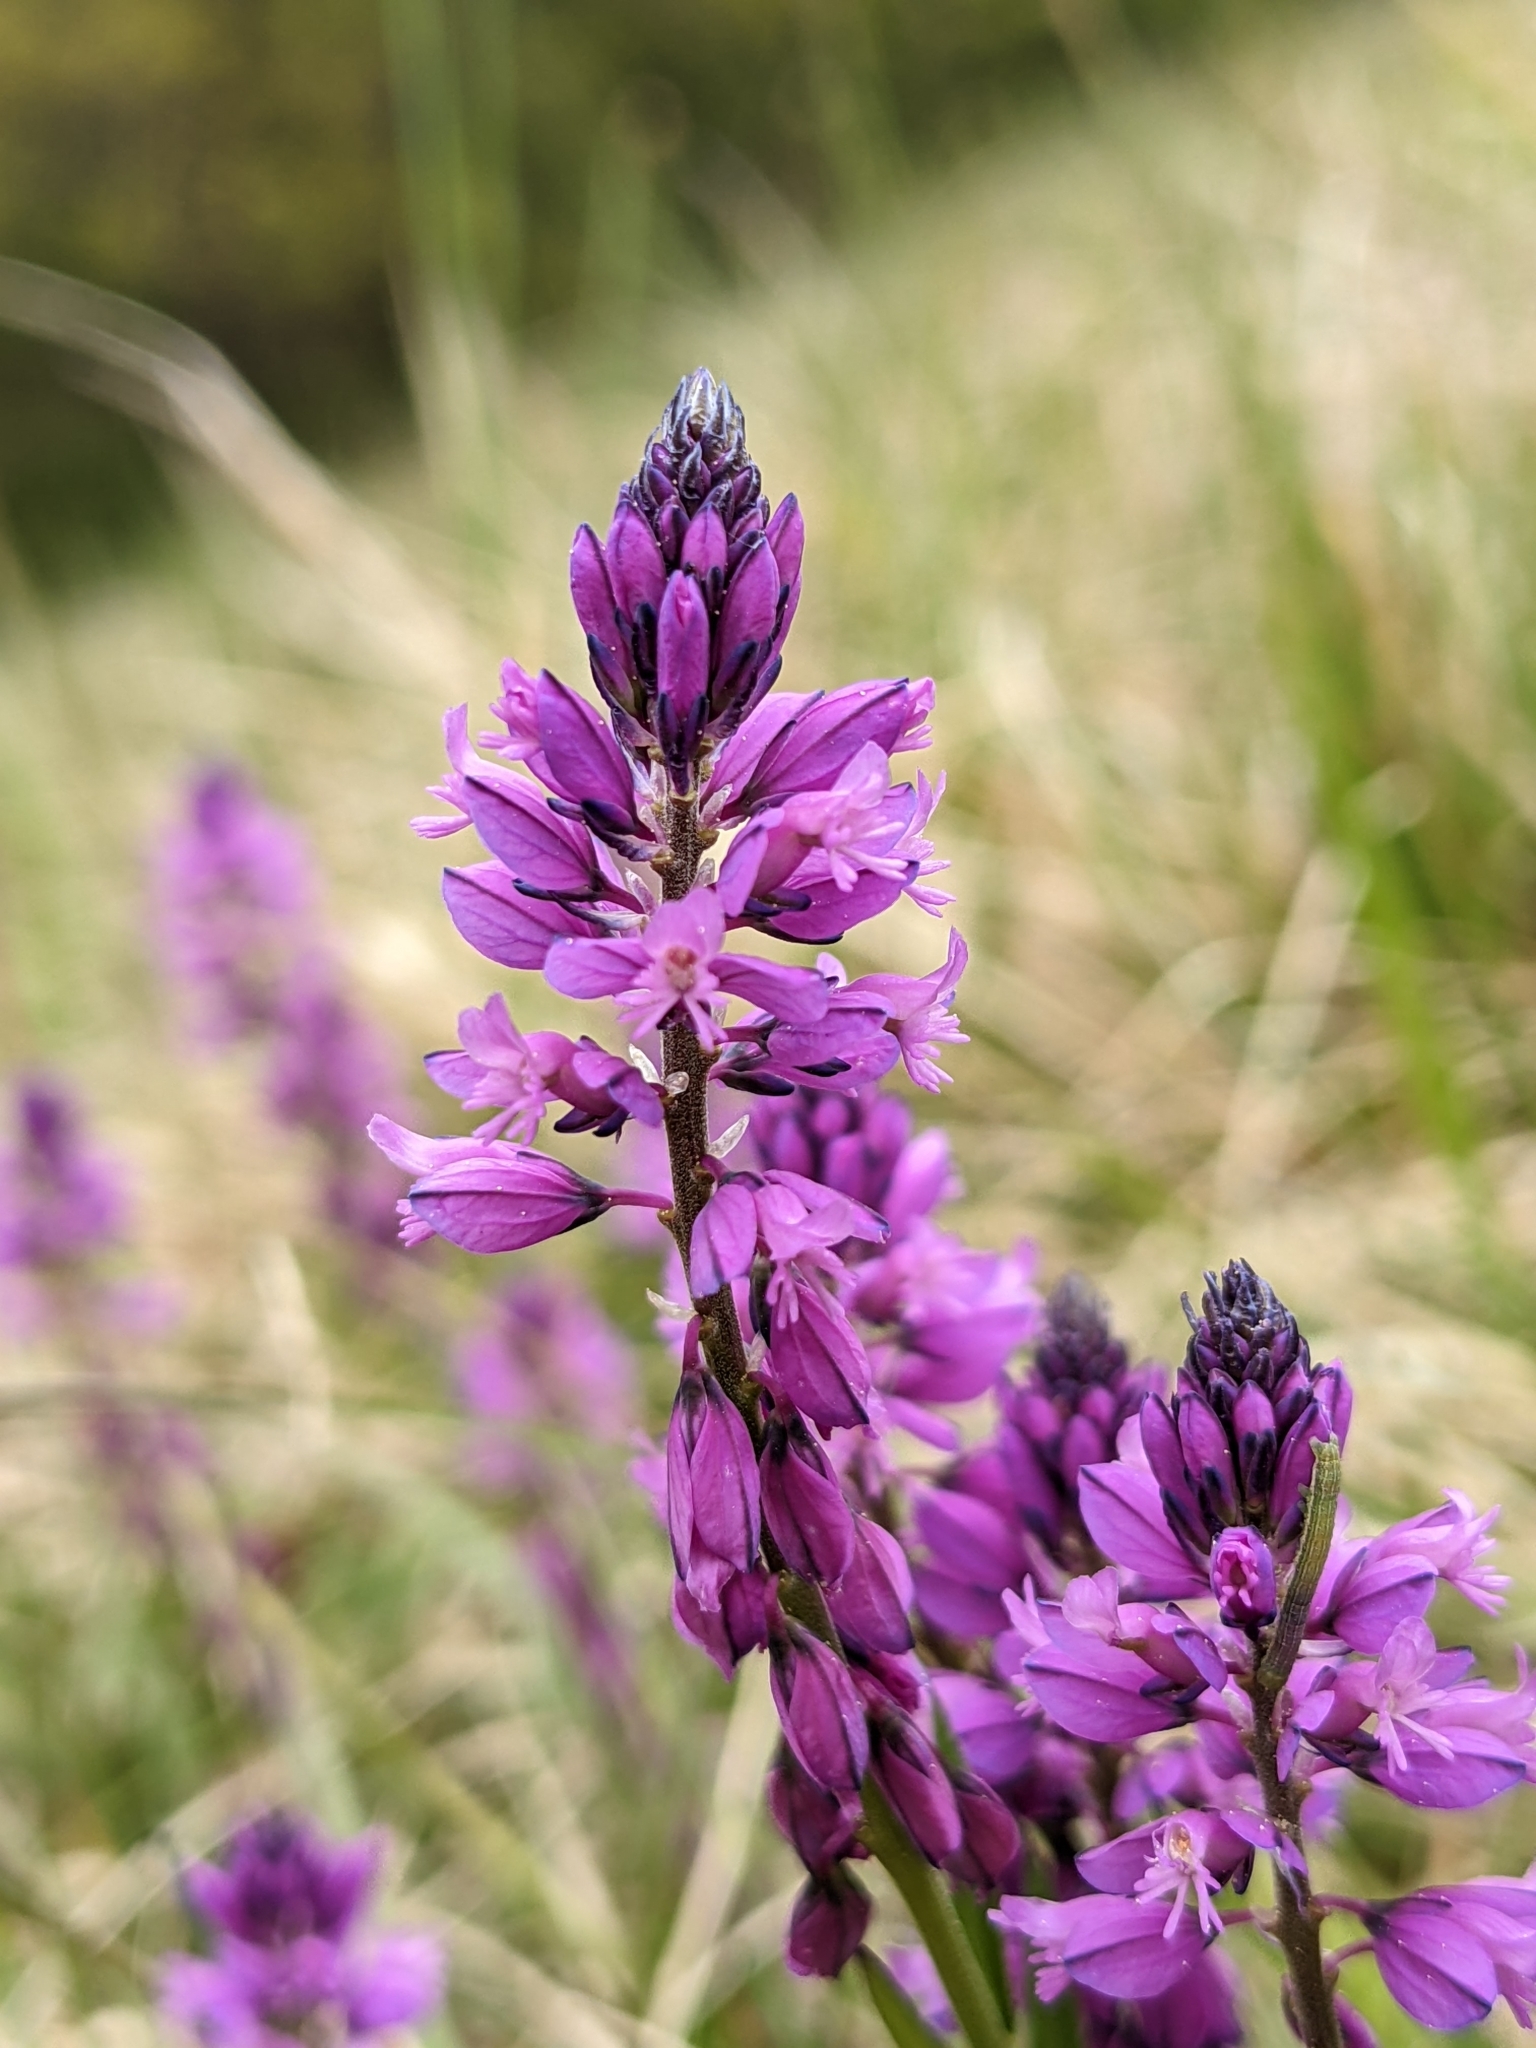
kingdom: Plantae
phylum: Tracheophyta
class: Magnoliopsida
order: Fabales
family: Polygalaceae
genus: Polygala
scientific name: Polygala comosa
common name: Tufted milkwort
